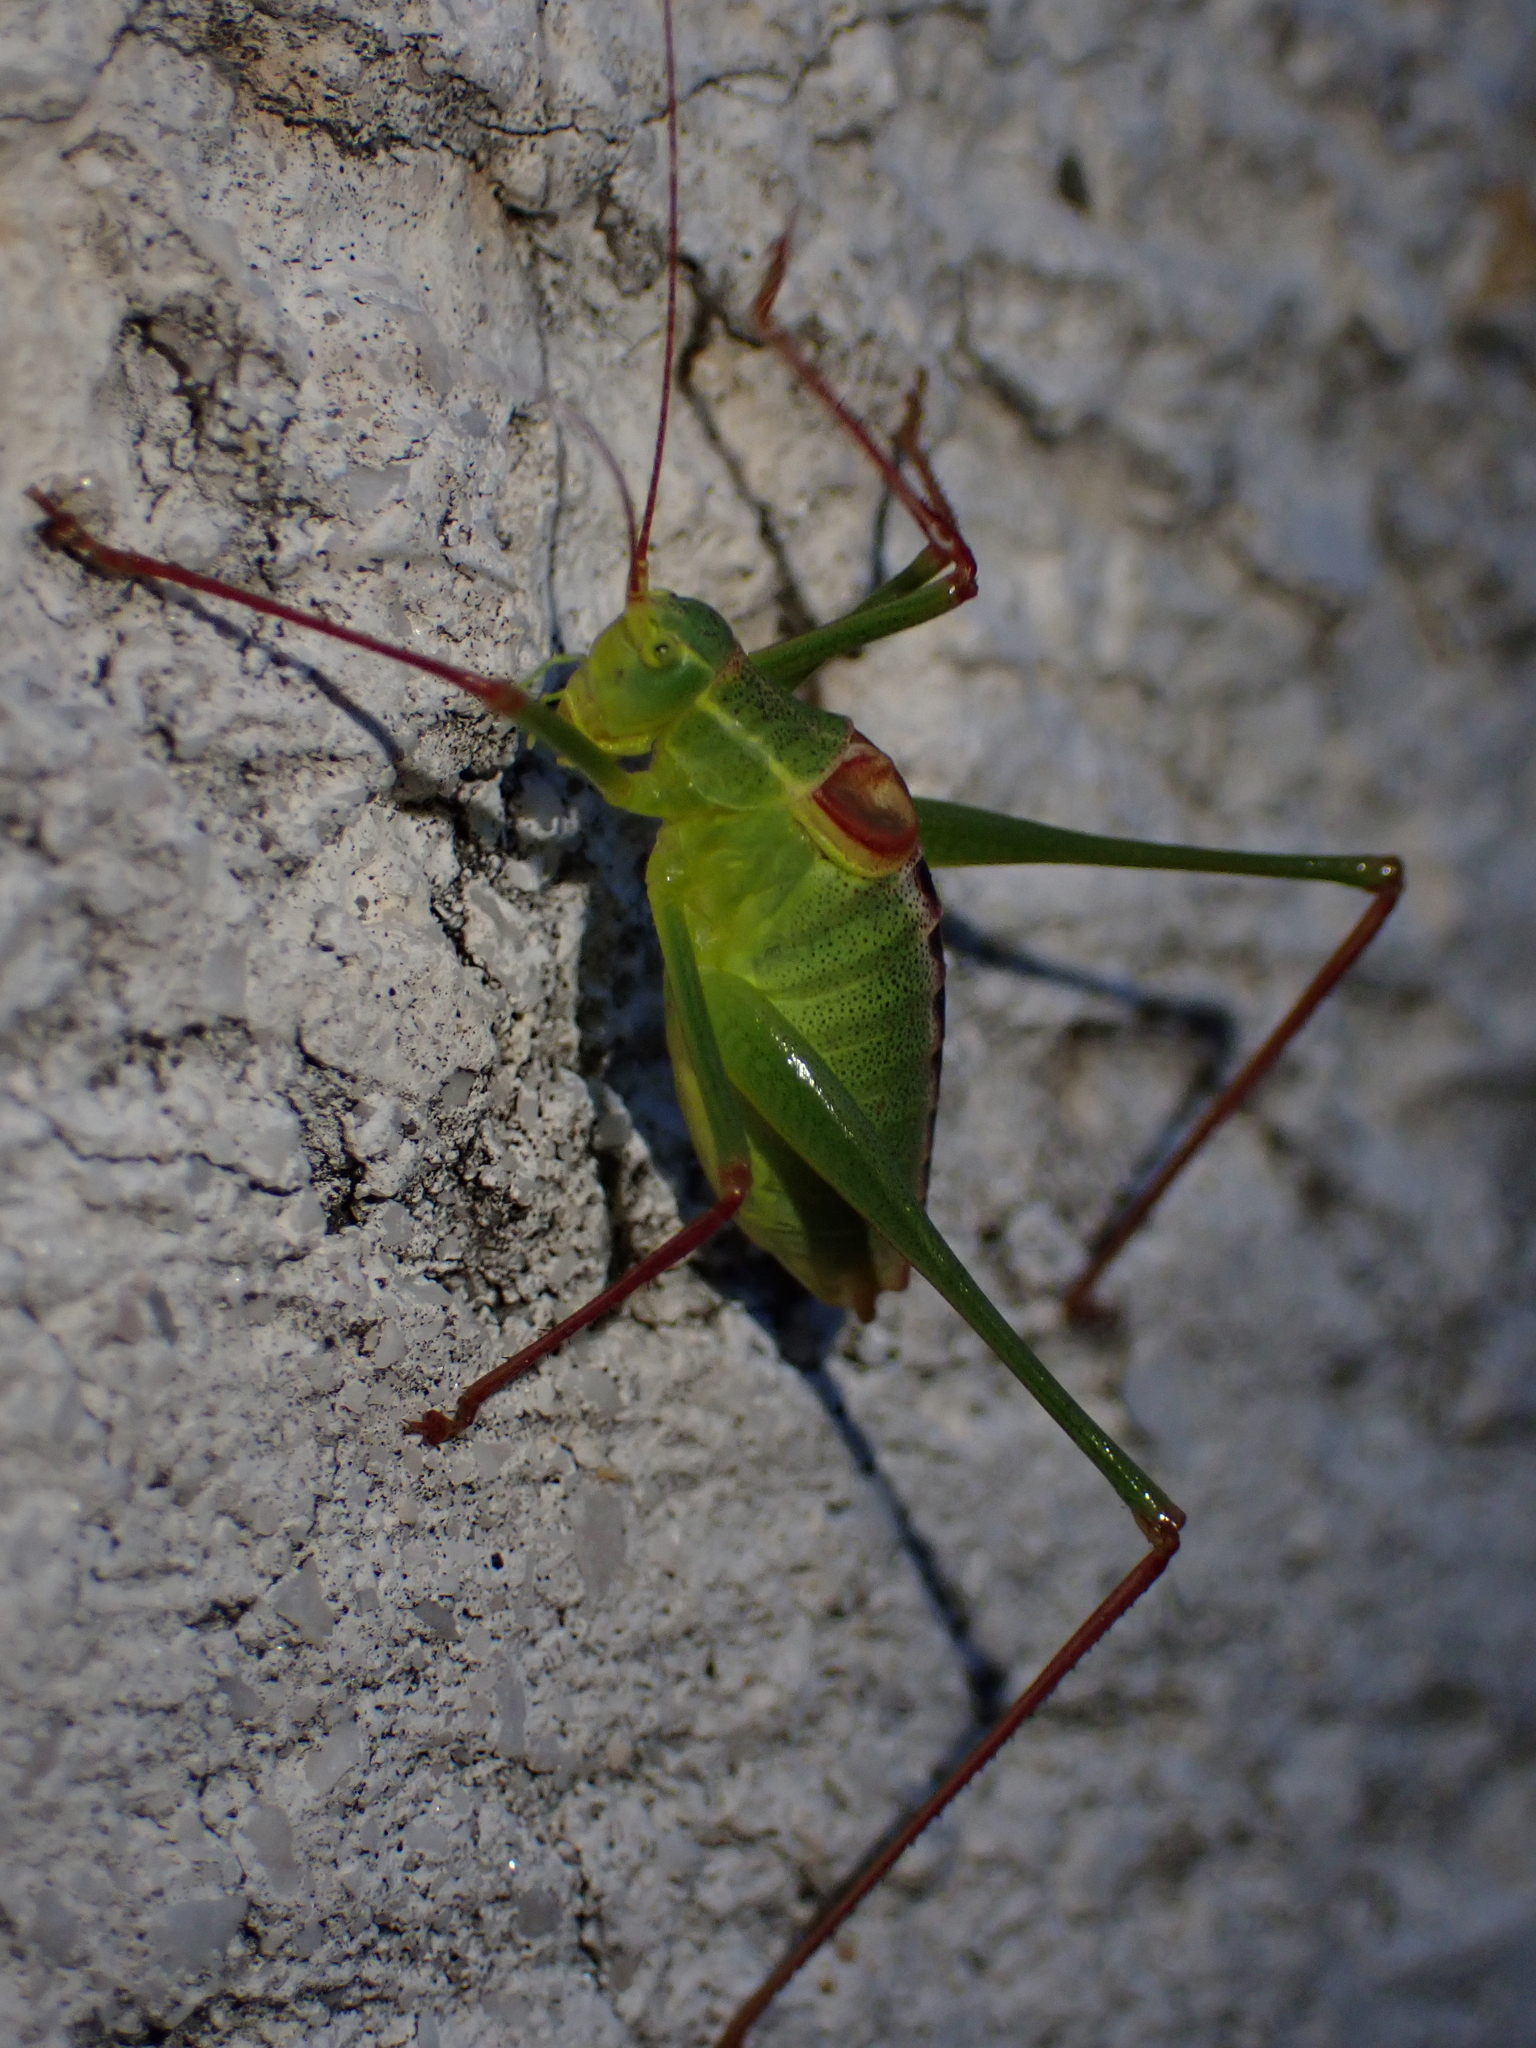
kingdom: Animalia
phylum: Arthropoda
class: Insecta
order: Orthoptera
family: Tettigoniidae
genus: Leptophyes
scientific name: Leptophyes laticauda
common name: Long-tailed speckled bush-cricket
